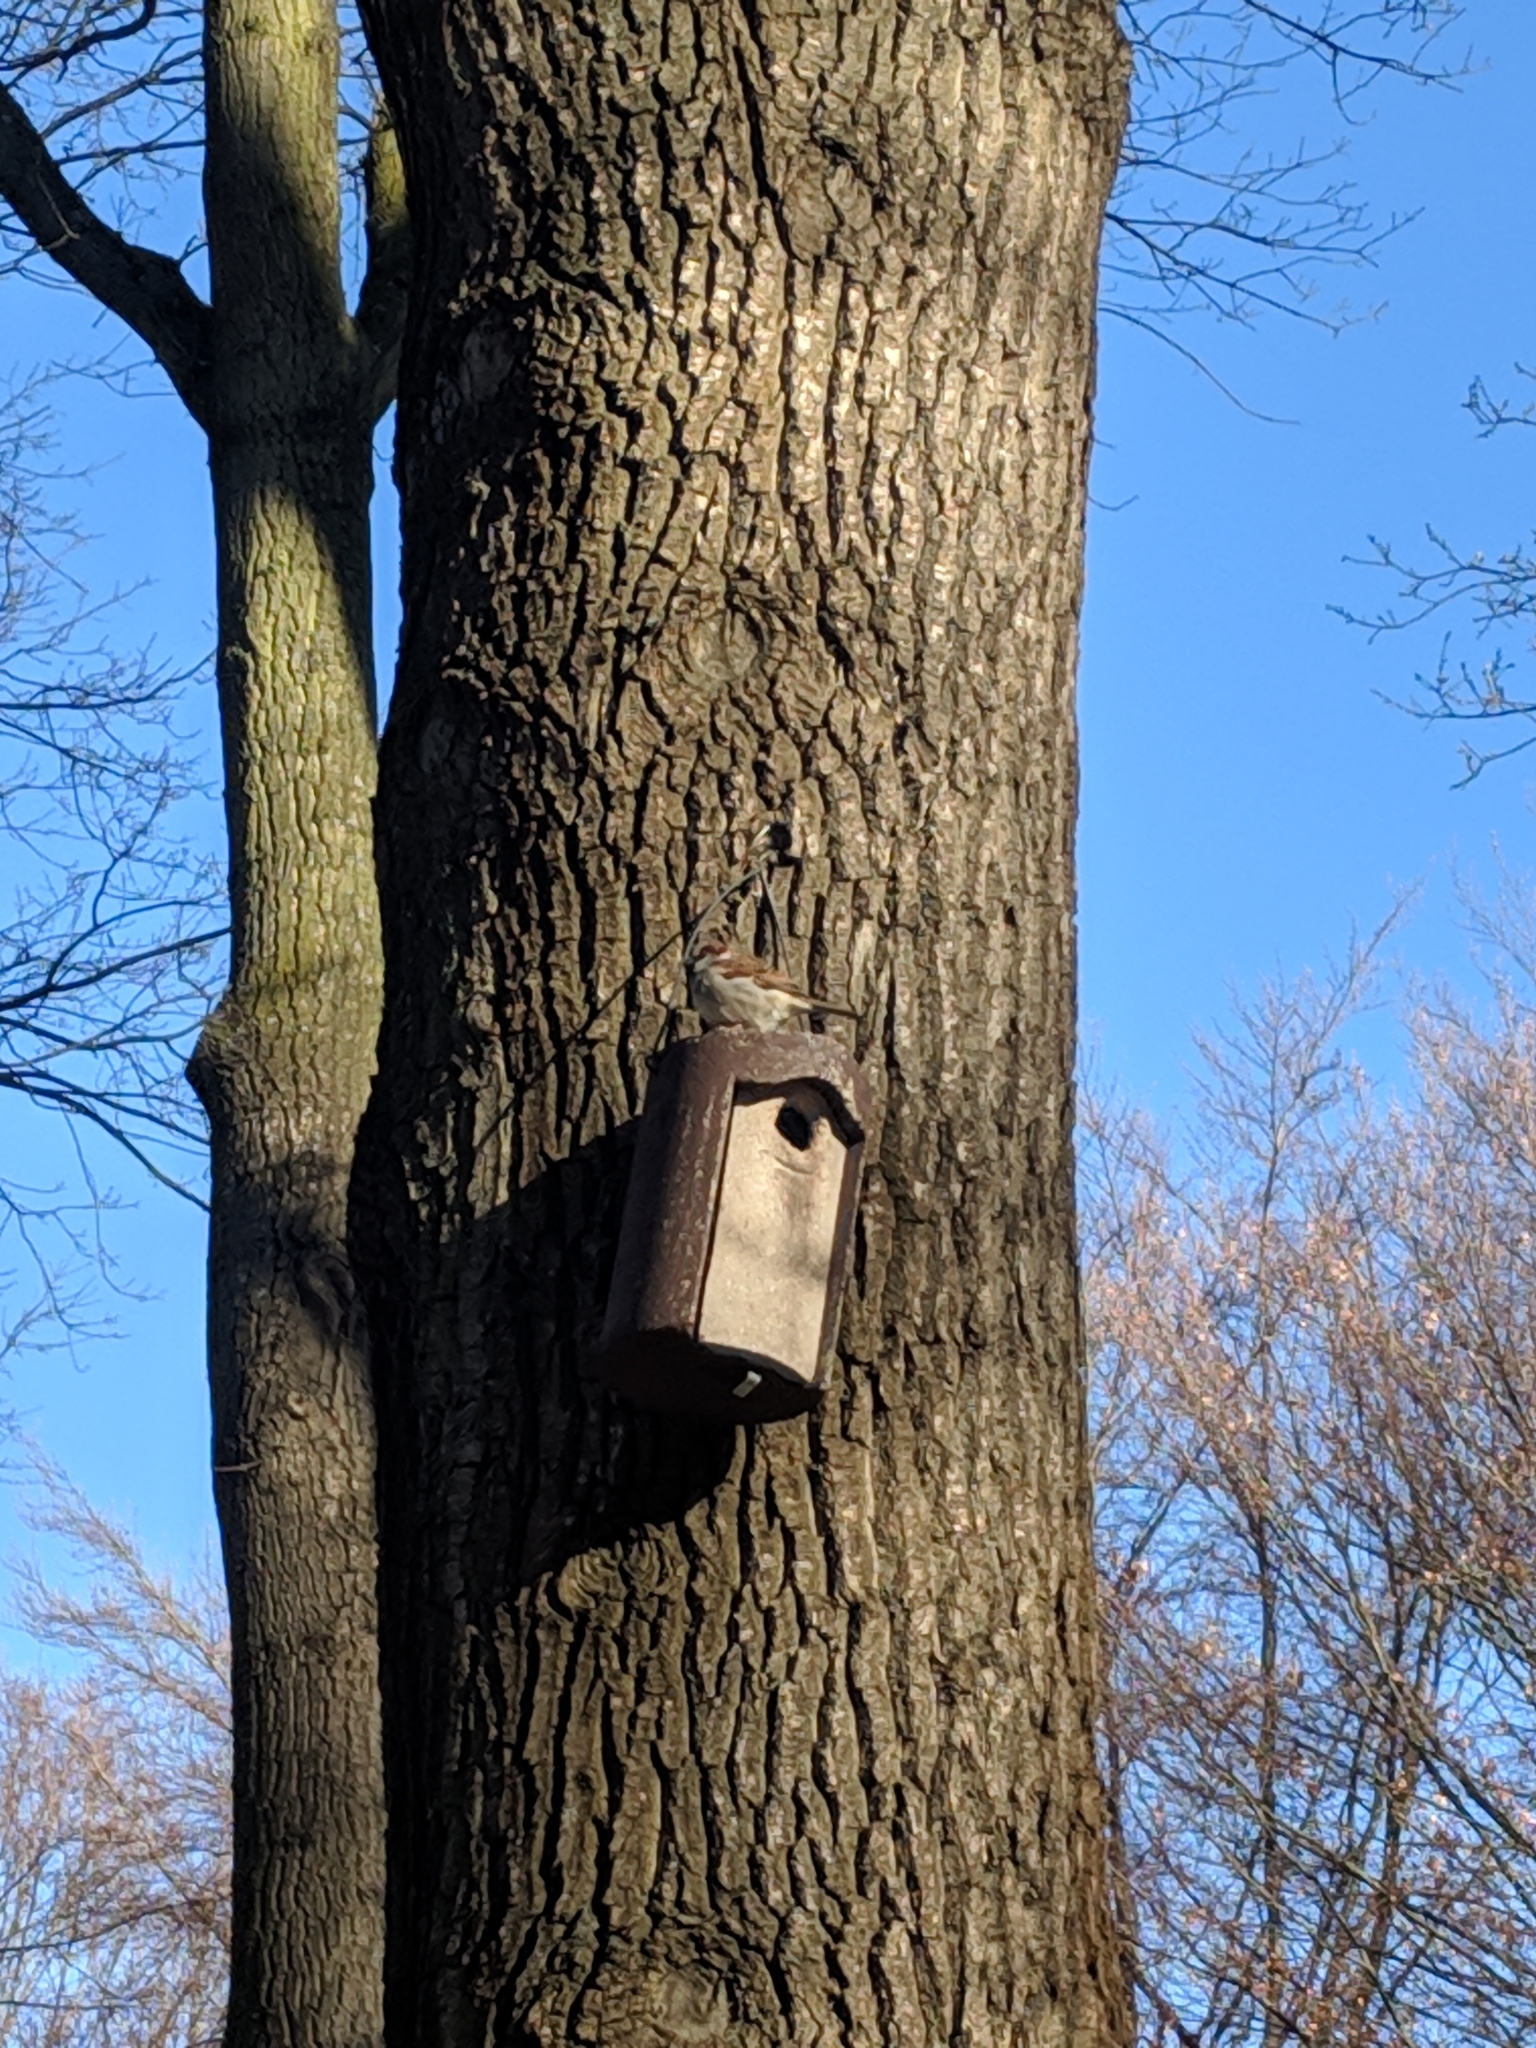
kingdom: Animalia
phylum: Chordata
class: Aves
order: Passeriformes
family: Passeridae
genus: Passer
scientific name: Passer domesticus
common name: House sparrow
